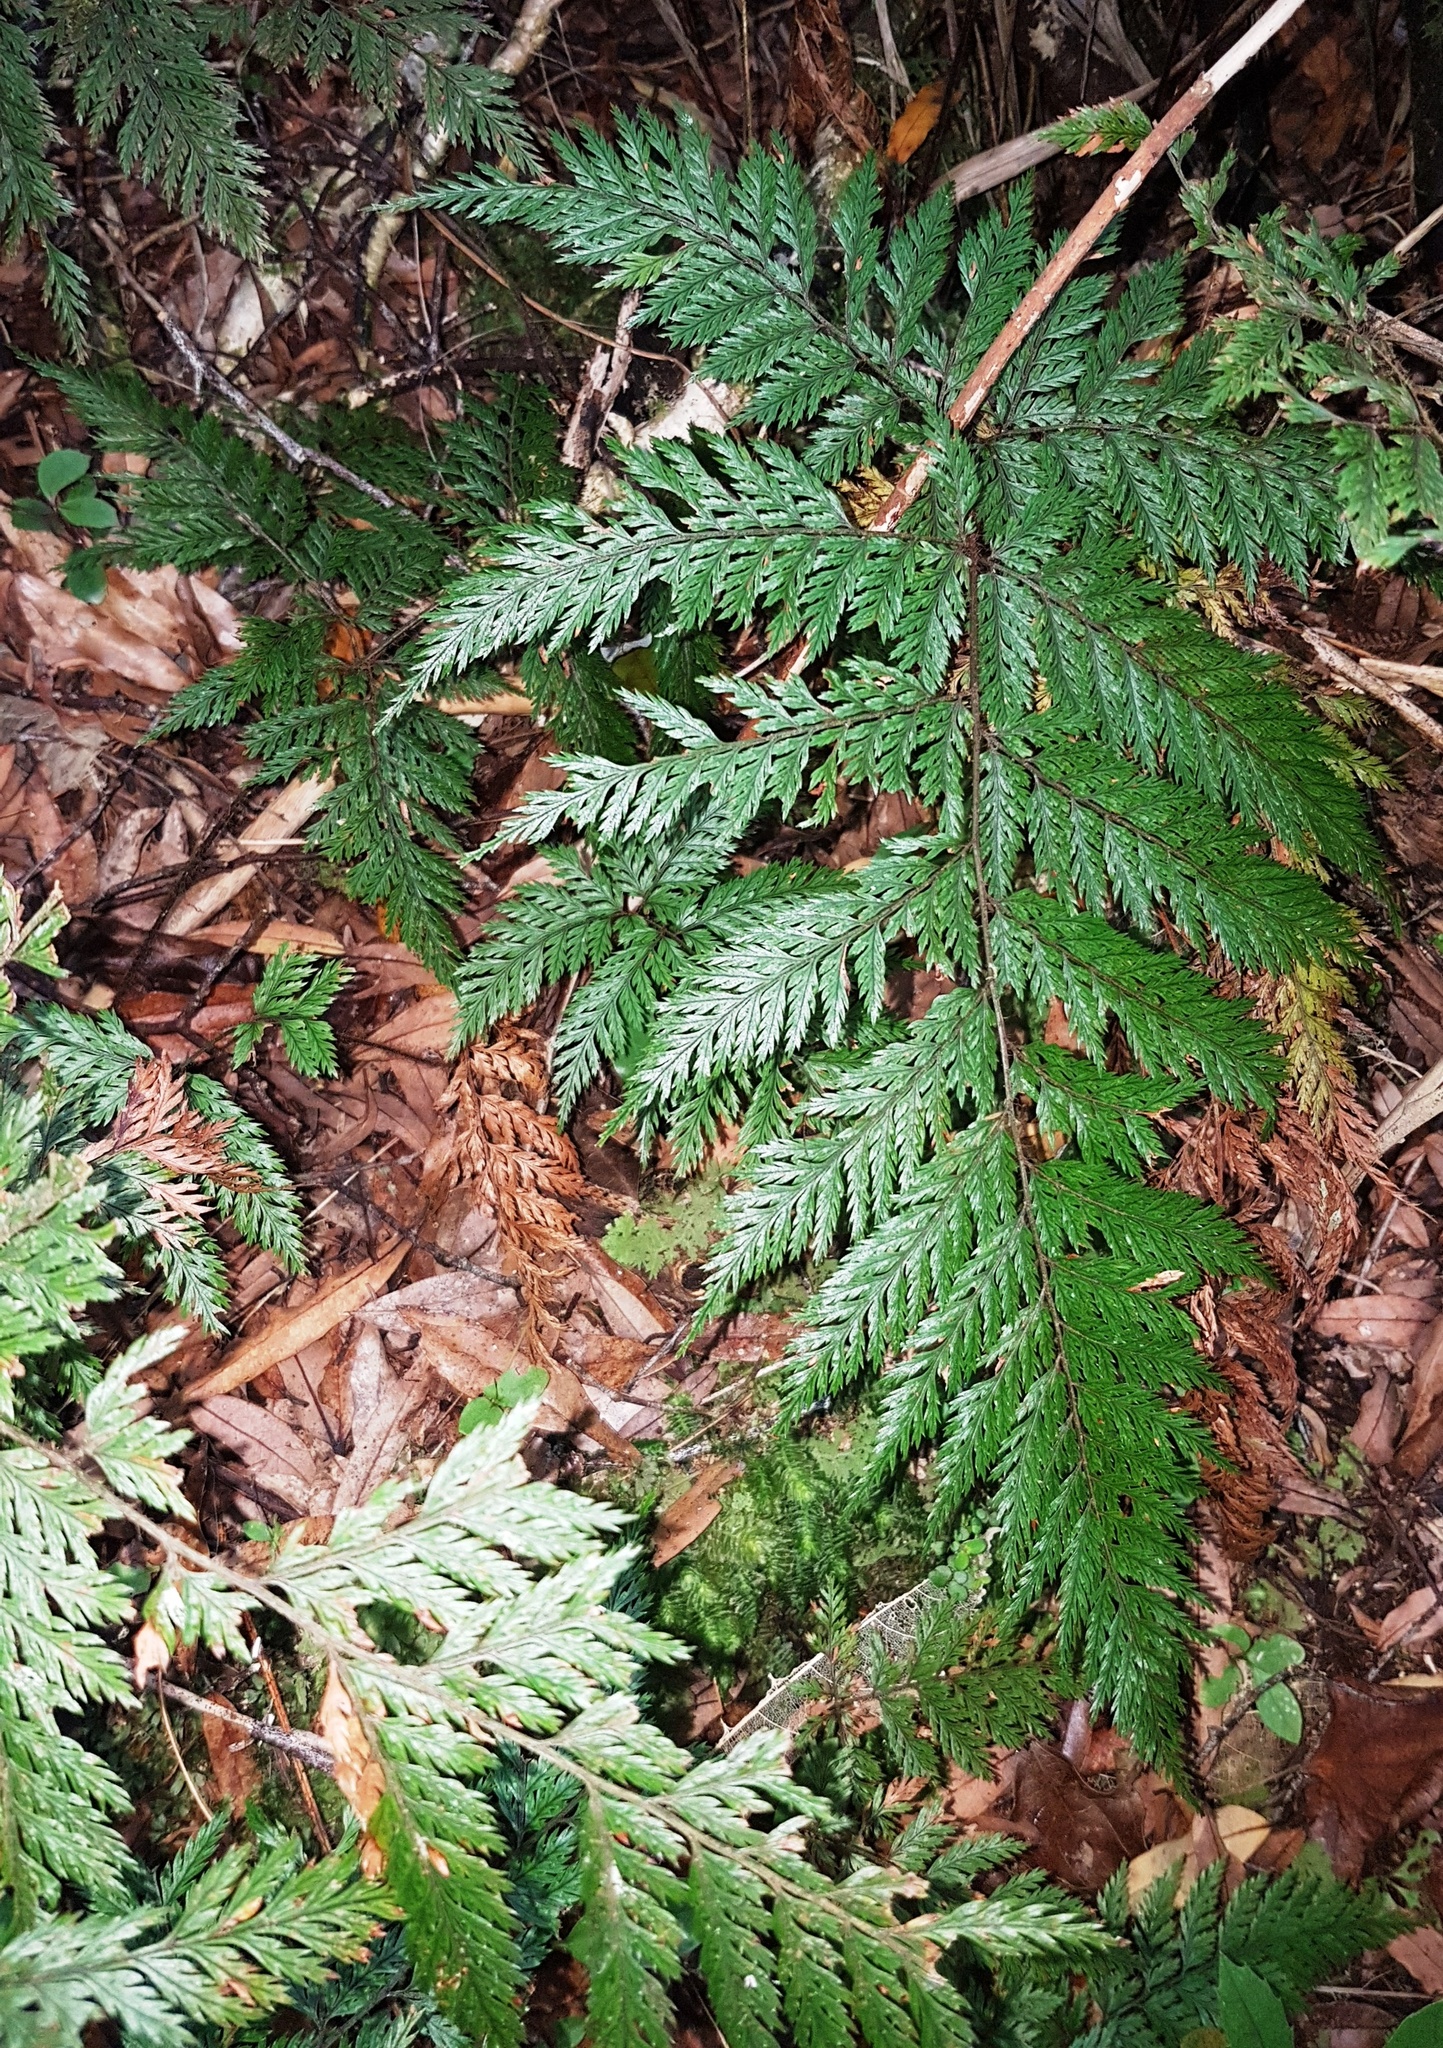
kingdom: Plantae
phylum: Tracheophyta
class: Polypodiopsida
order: Polypodiales
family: Dryopteridaceae
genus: Lastreopsis
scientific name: Lastreopsis hispida
